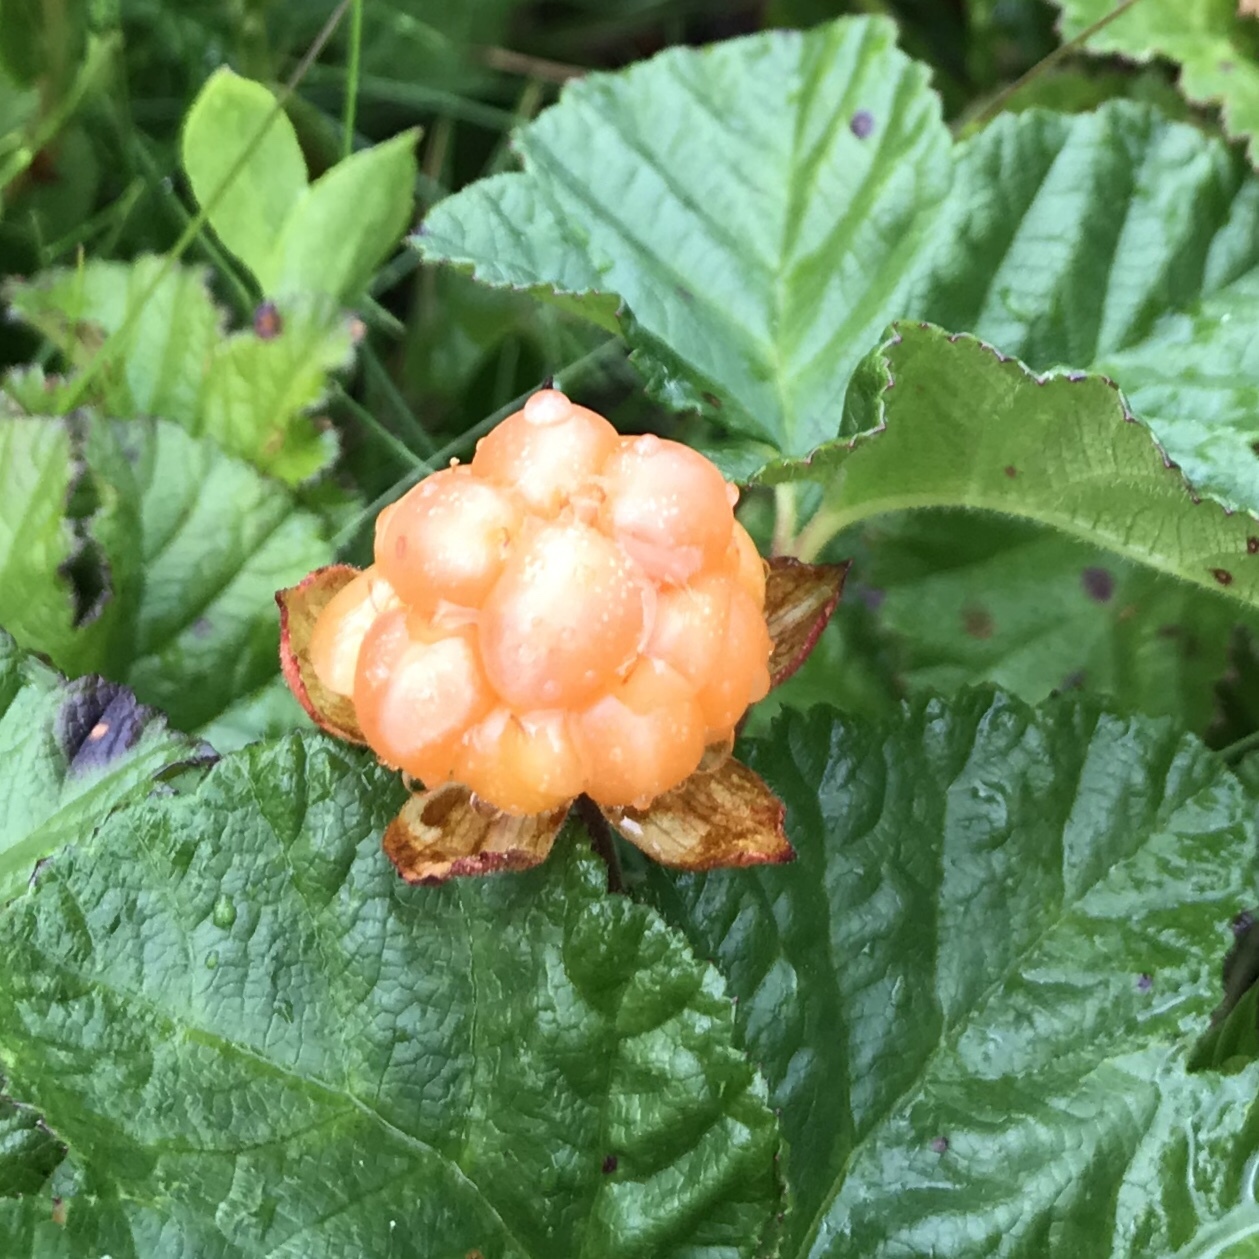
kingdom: Plantae
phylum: Tracheophyta
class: Magnoliopsida
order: Rosales
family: Rosaceae
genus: Rubus
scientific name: Rubus chamaemorus
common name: Cloudberry
